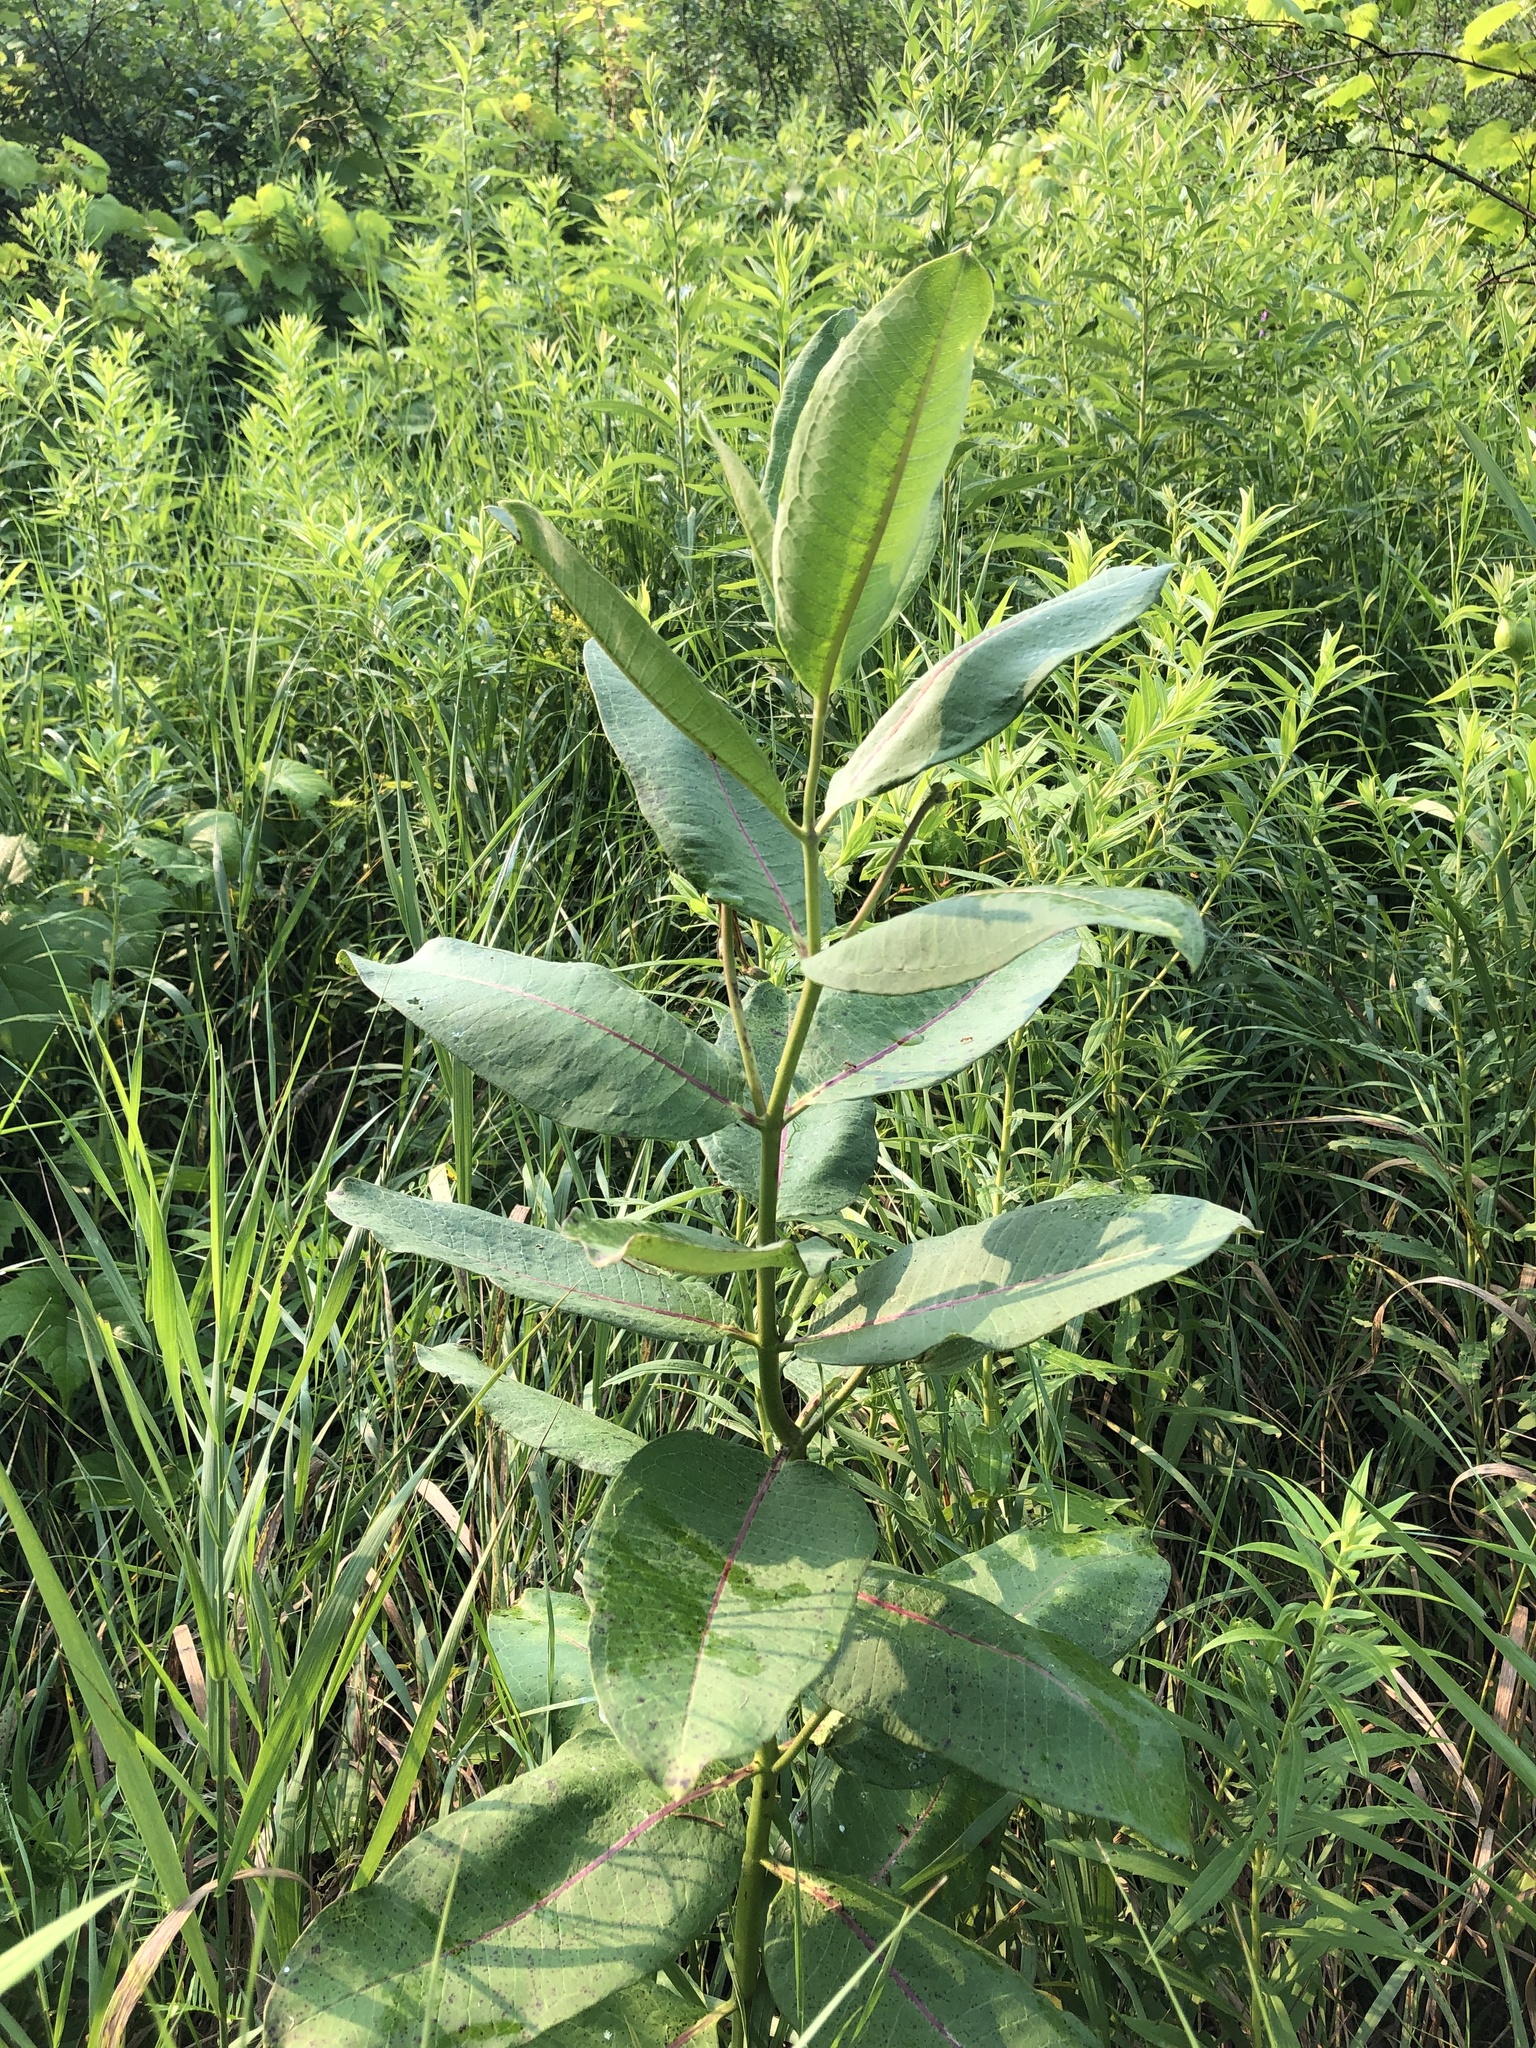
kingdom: Plantae
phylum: Tracheophyta
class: Magnoliopsida
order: Gentianales
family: Apocynaceae
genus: Asclepias
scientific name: Asclepias syriaca
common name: Common milkweed
